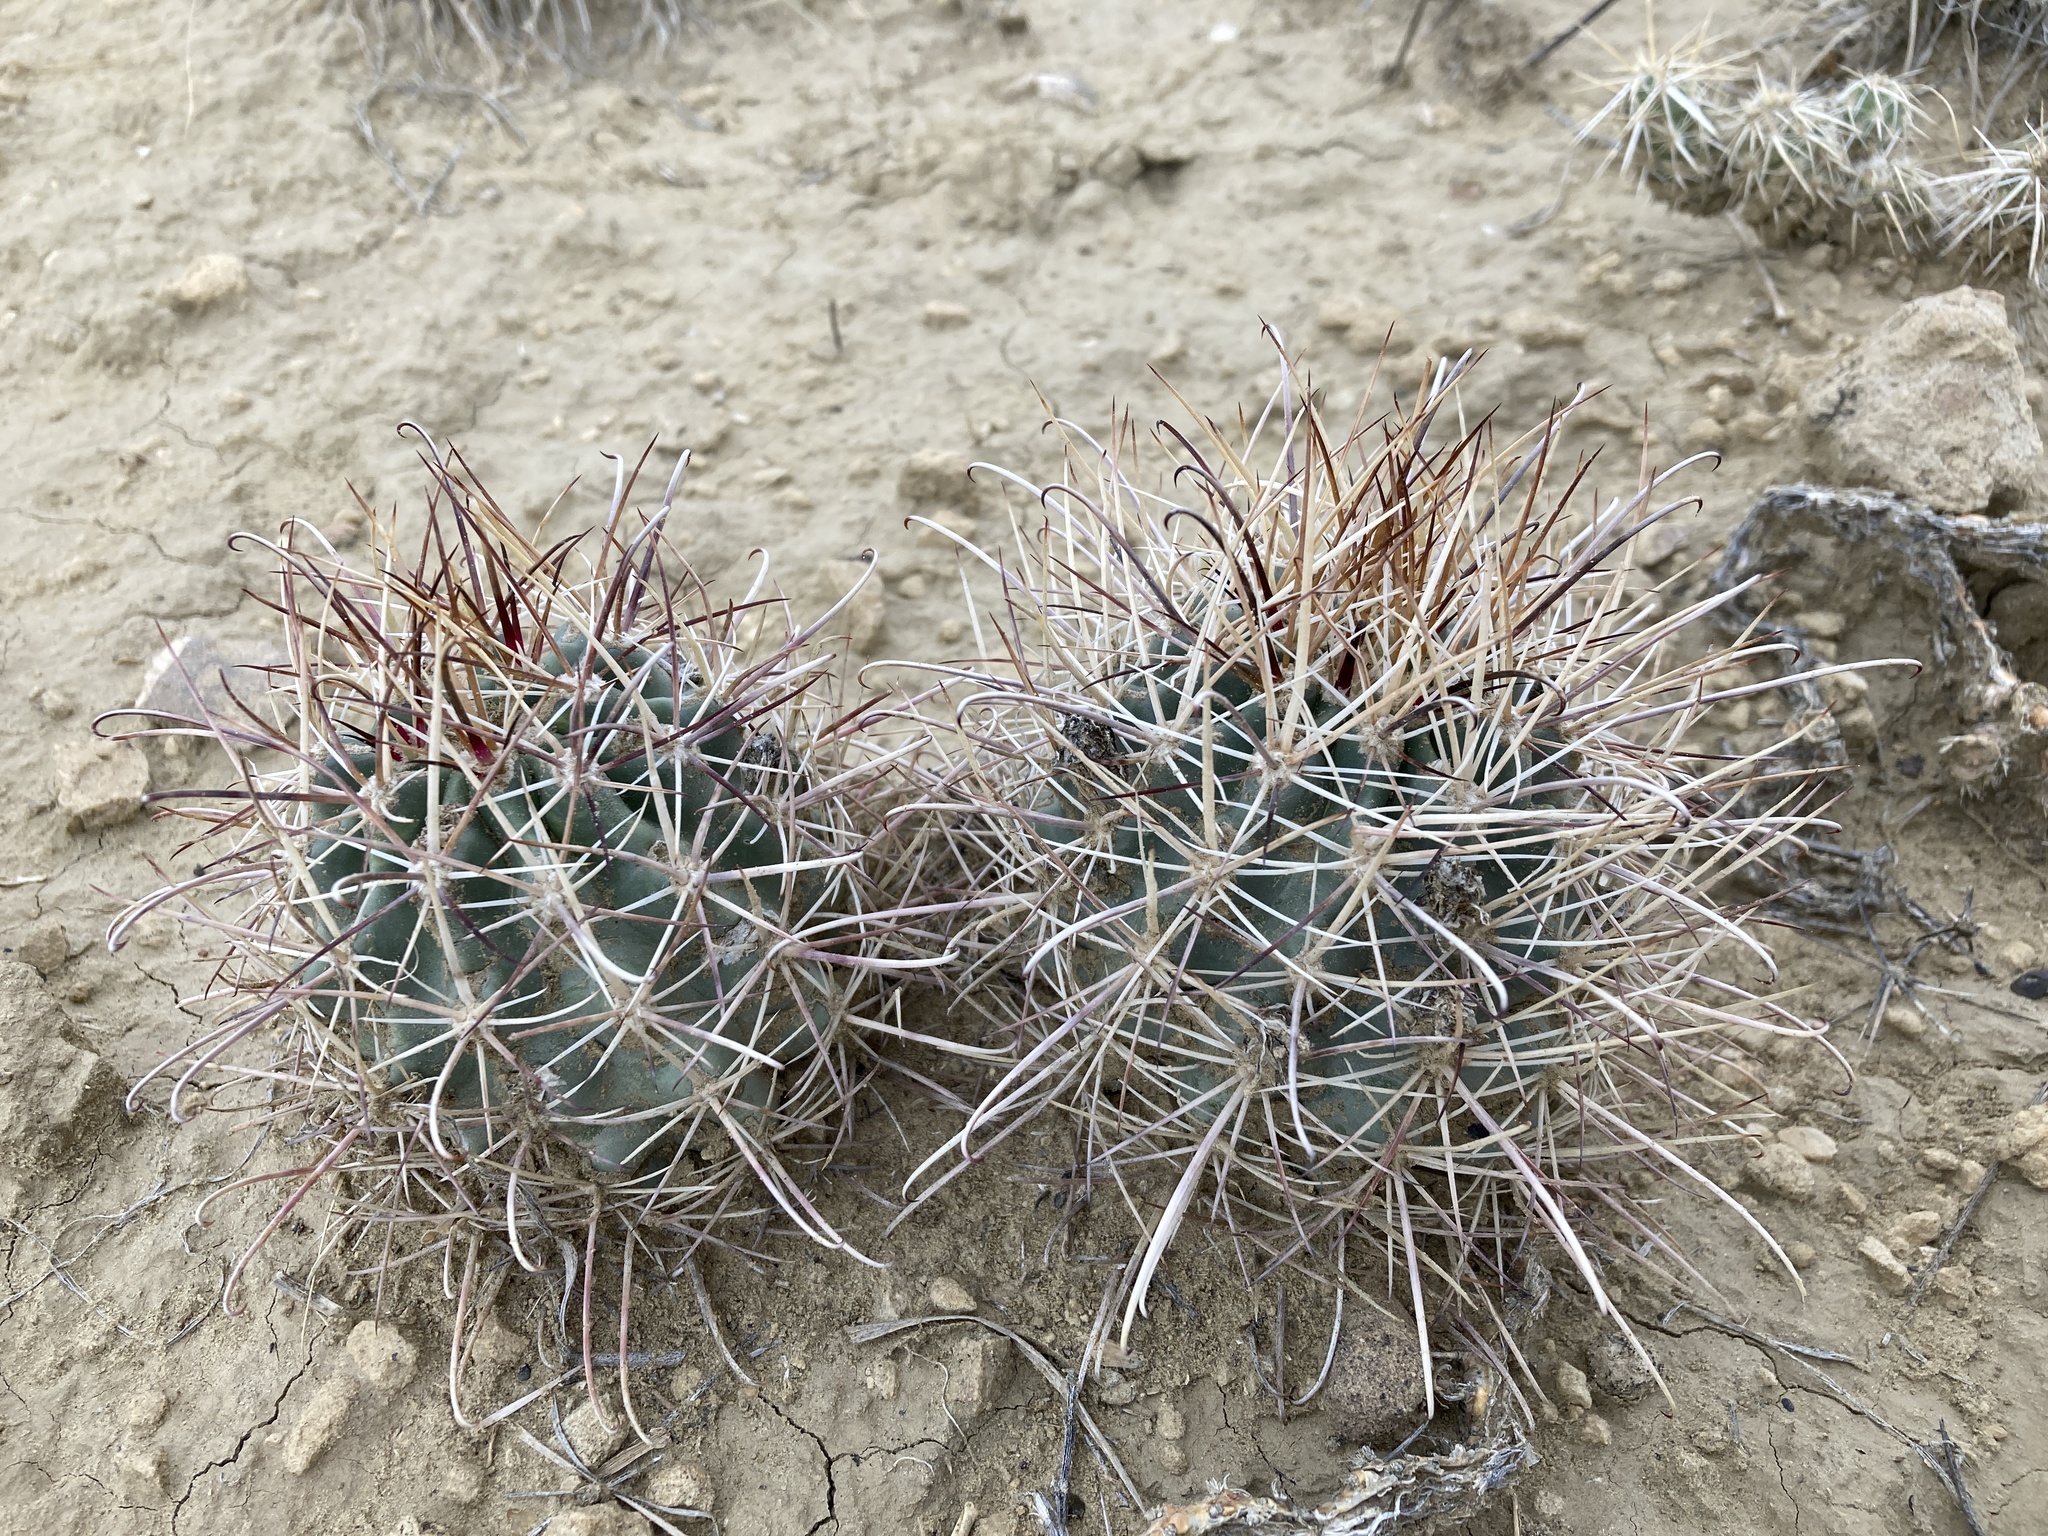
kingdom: Plantae
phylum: Tracheophyta
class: Magnoliopsida
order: Caryophyllales
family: Cactaceae
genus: Sclerocactus
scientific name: Sclerocactus cloverae
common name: Clover's eagle-claw cactus
